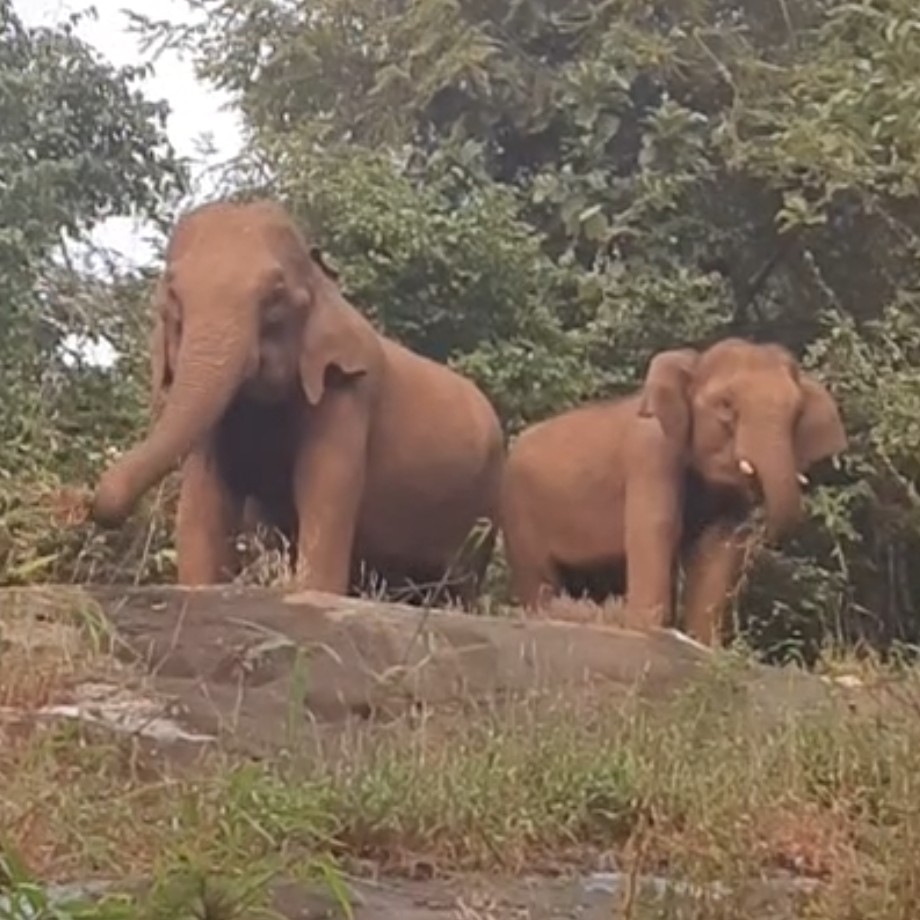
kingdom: Animalia
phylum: Chordata
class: Mammalia
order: Proboscidea
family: Elephantidae
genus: Elephas
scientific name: Elephas maximus
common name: Asian elephant
